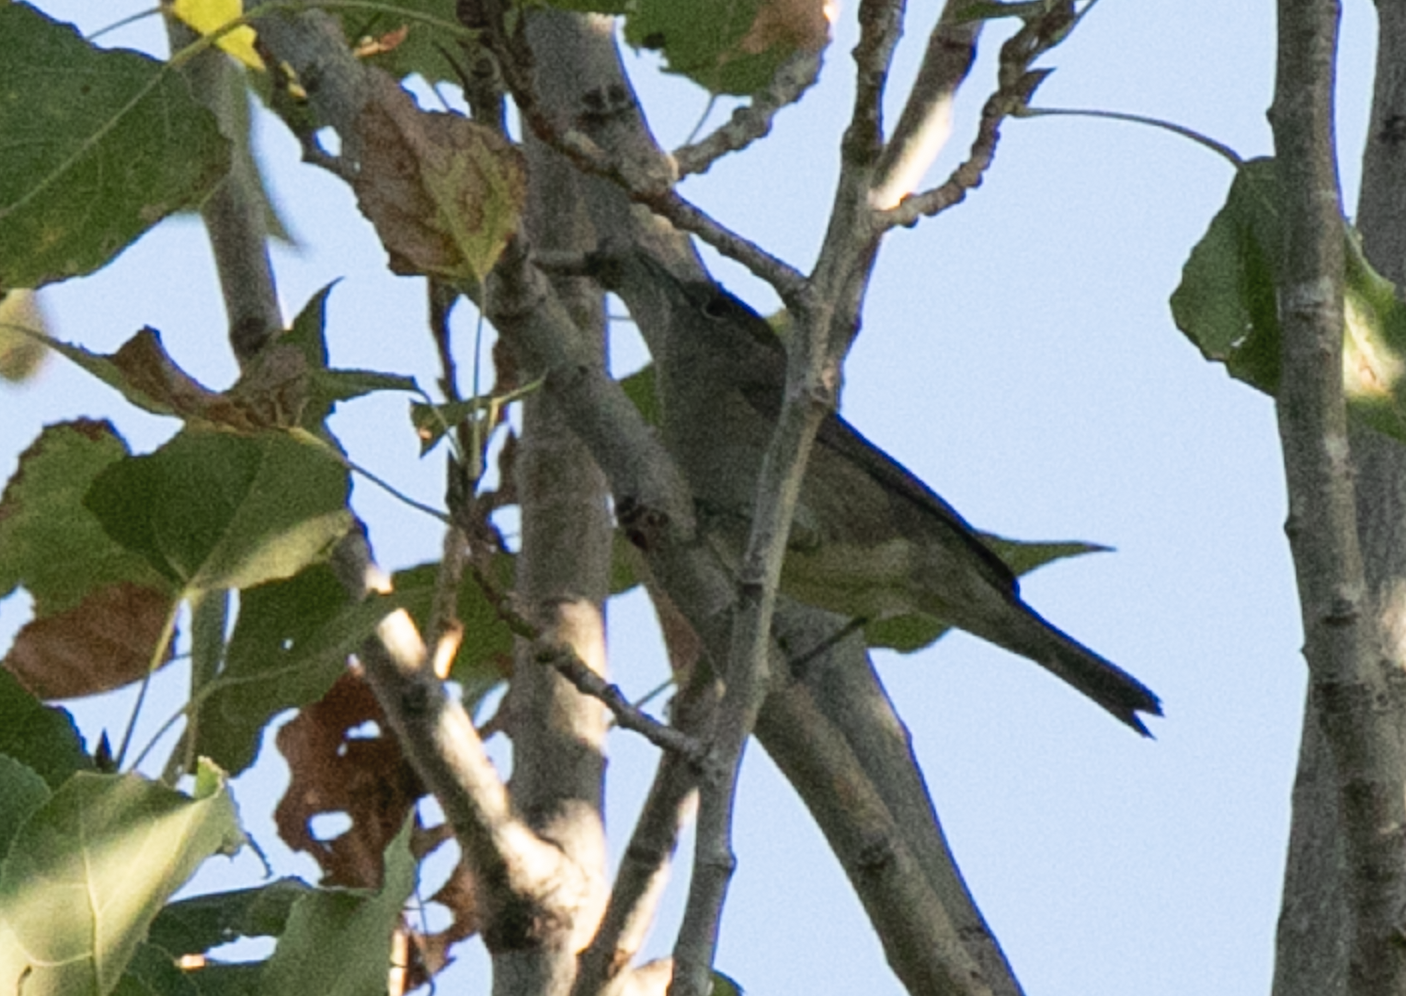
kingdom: Animalia
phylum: Chordata
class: Aves
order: Passeriformes
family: Sylviidae
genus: Sylvia
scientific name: Sylvia atricapilla
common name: Eurasian blackcap
